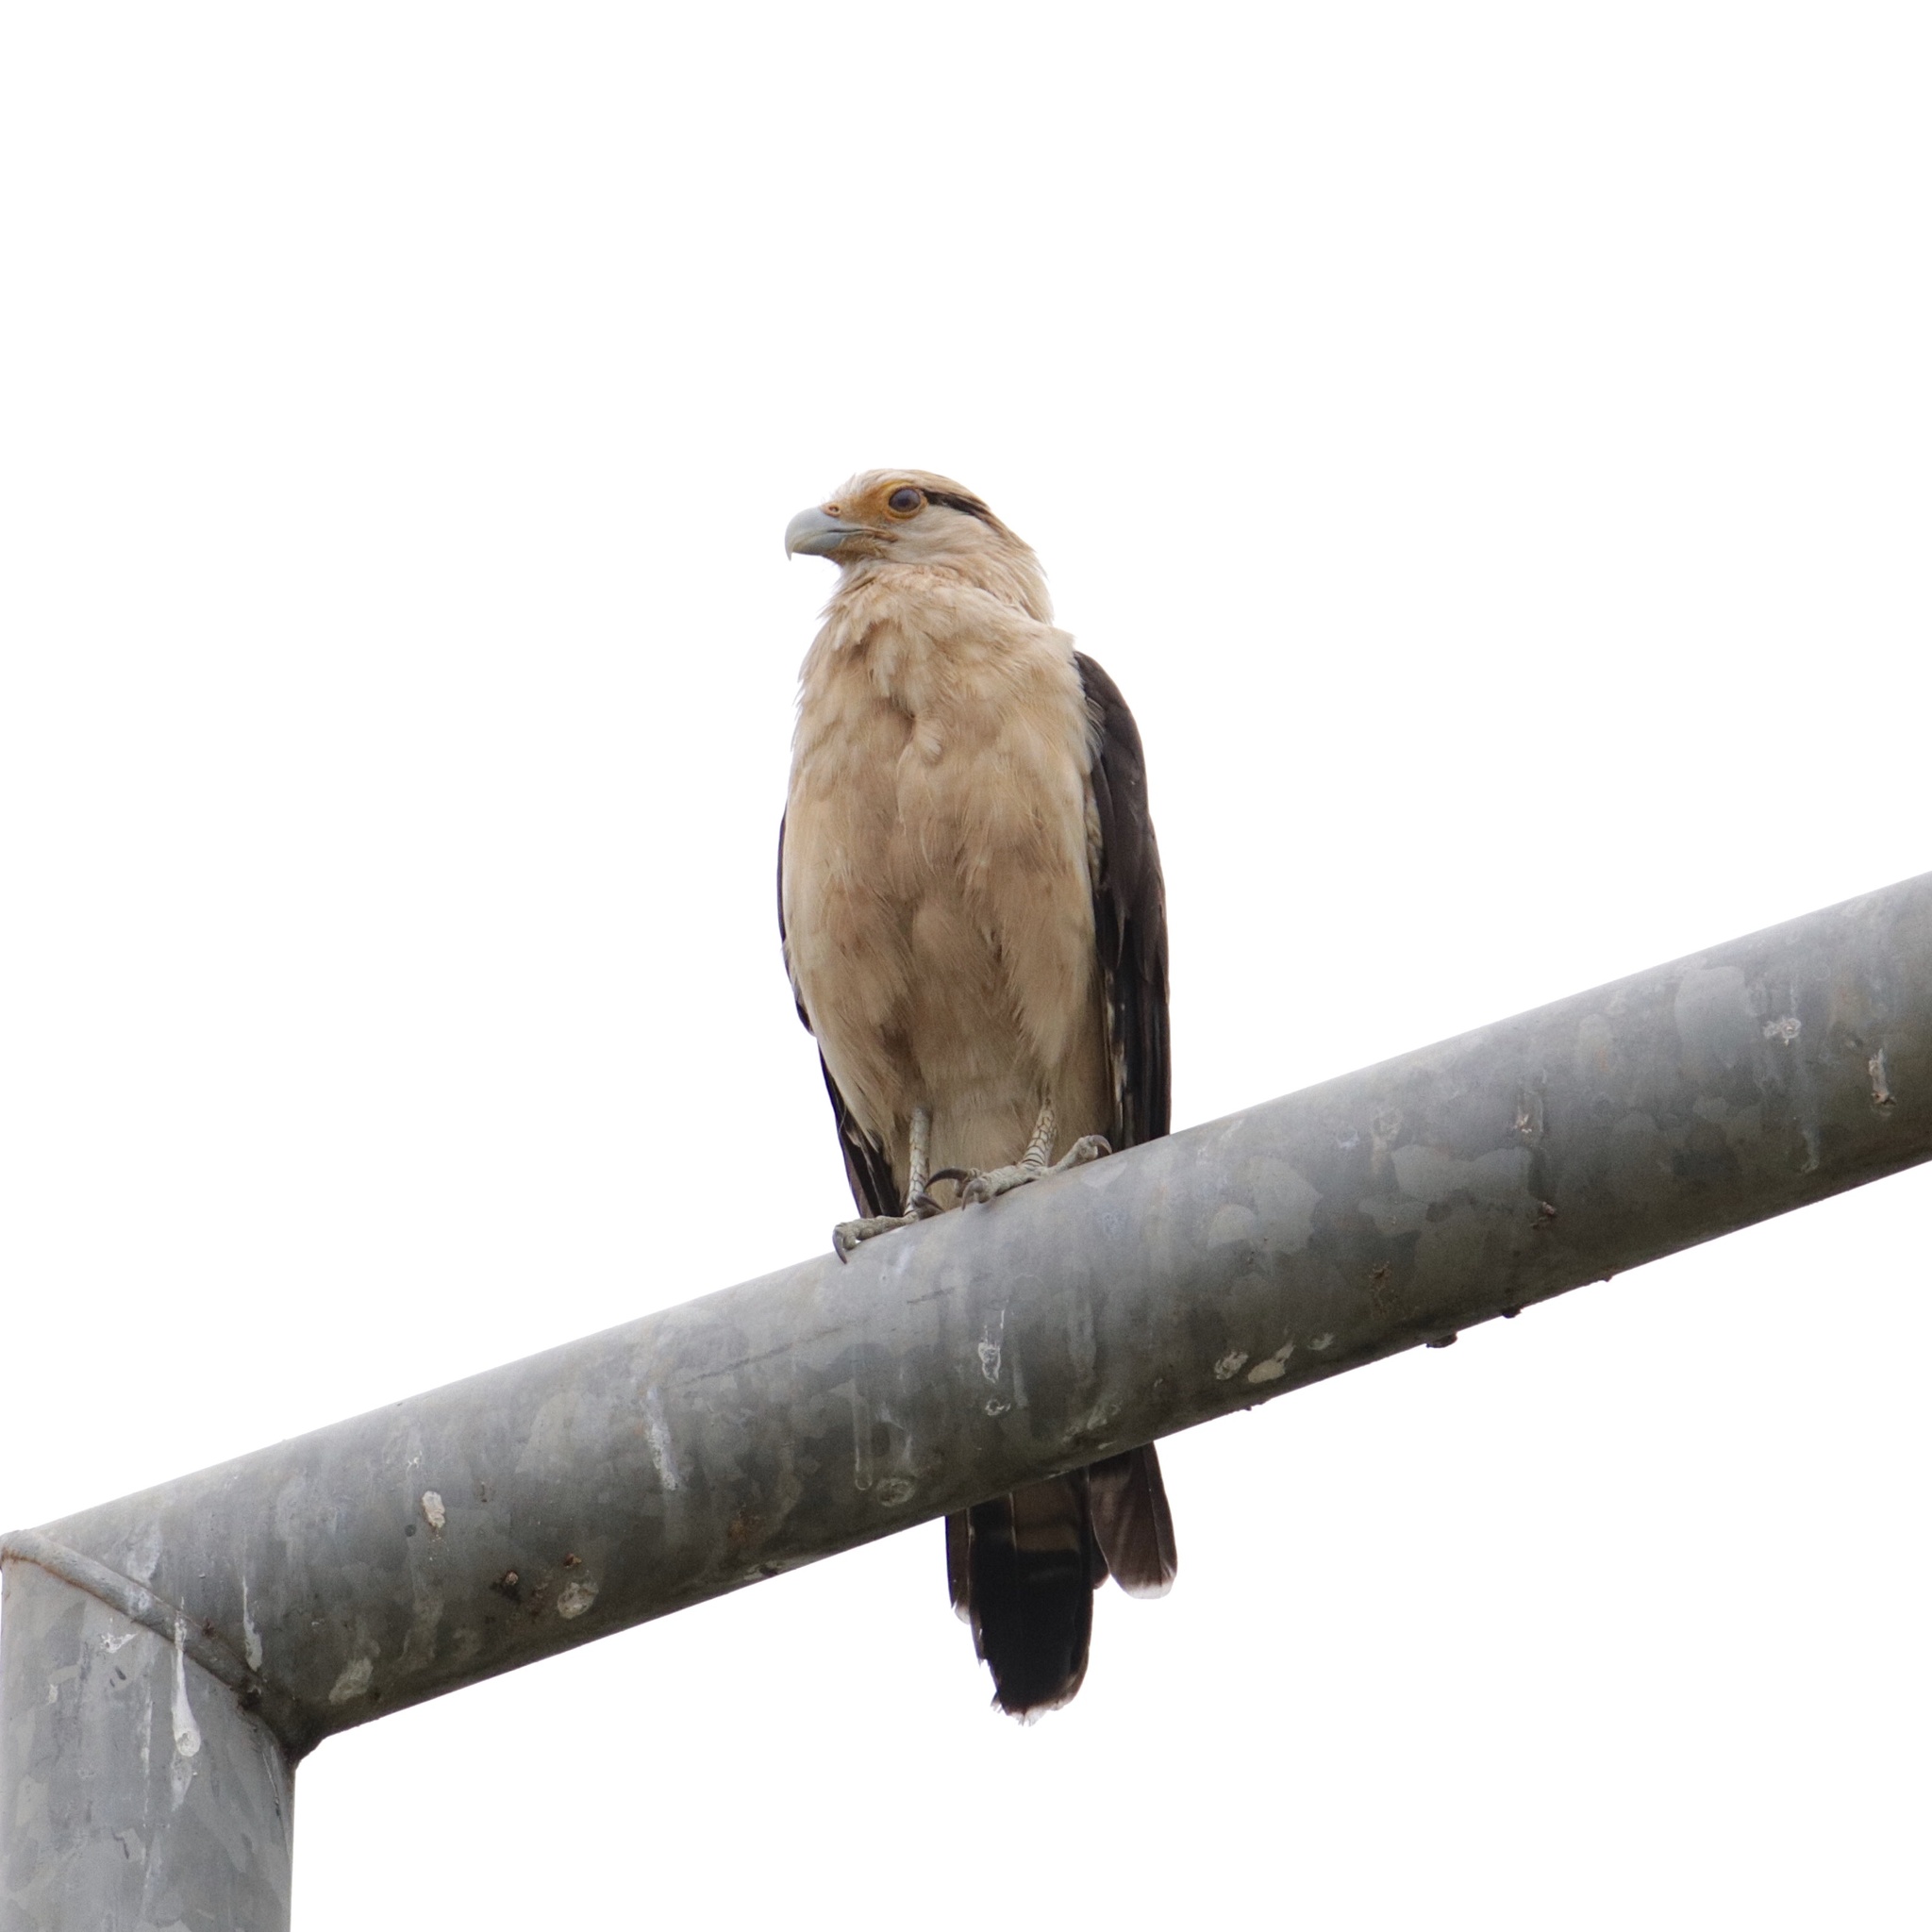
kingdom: Animalia
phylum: Chordata
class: Aves
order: Falconiformes
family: Falconidae
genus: Daptrius
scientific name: Daptrius
